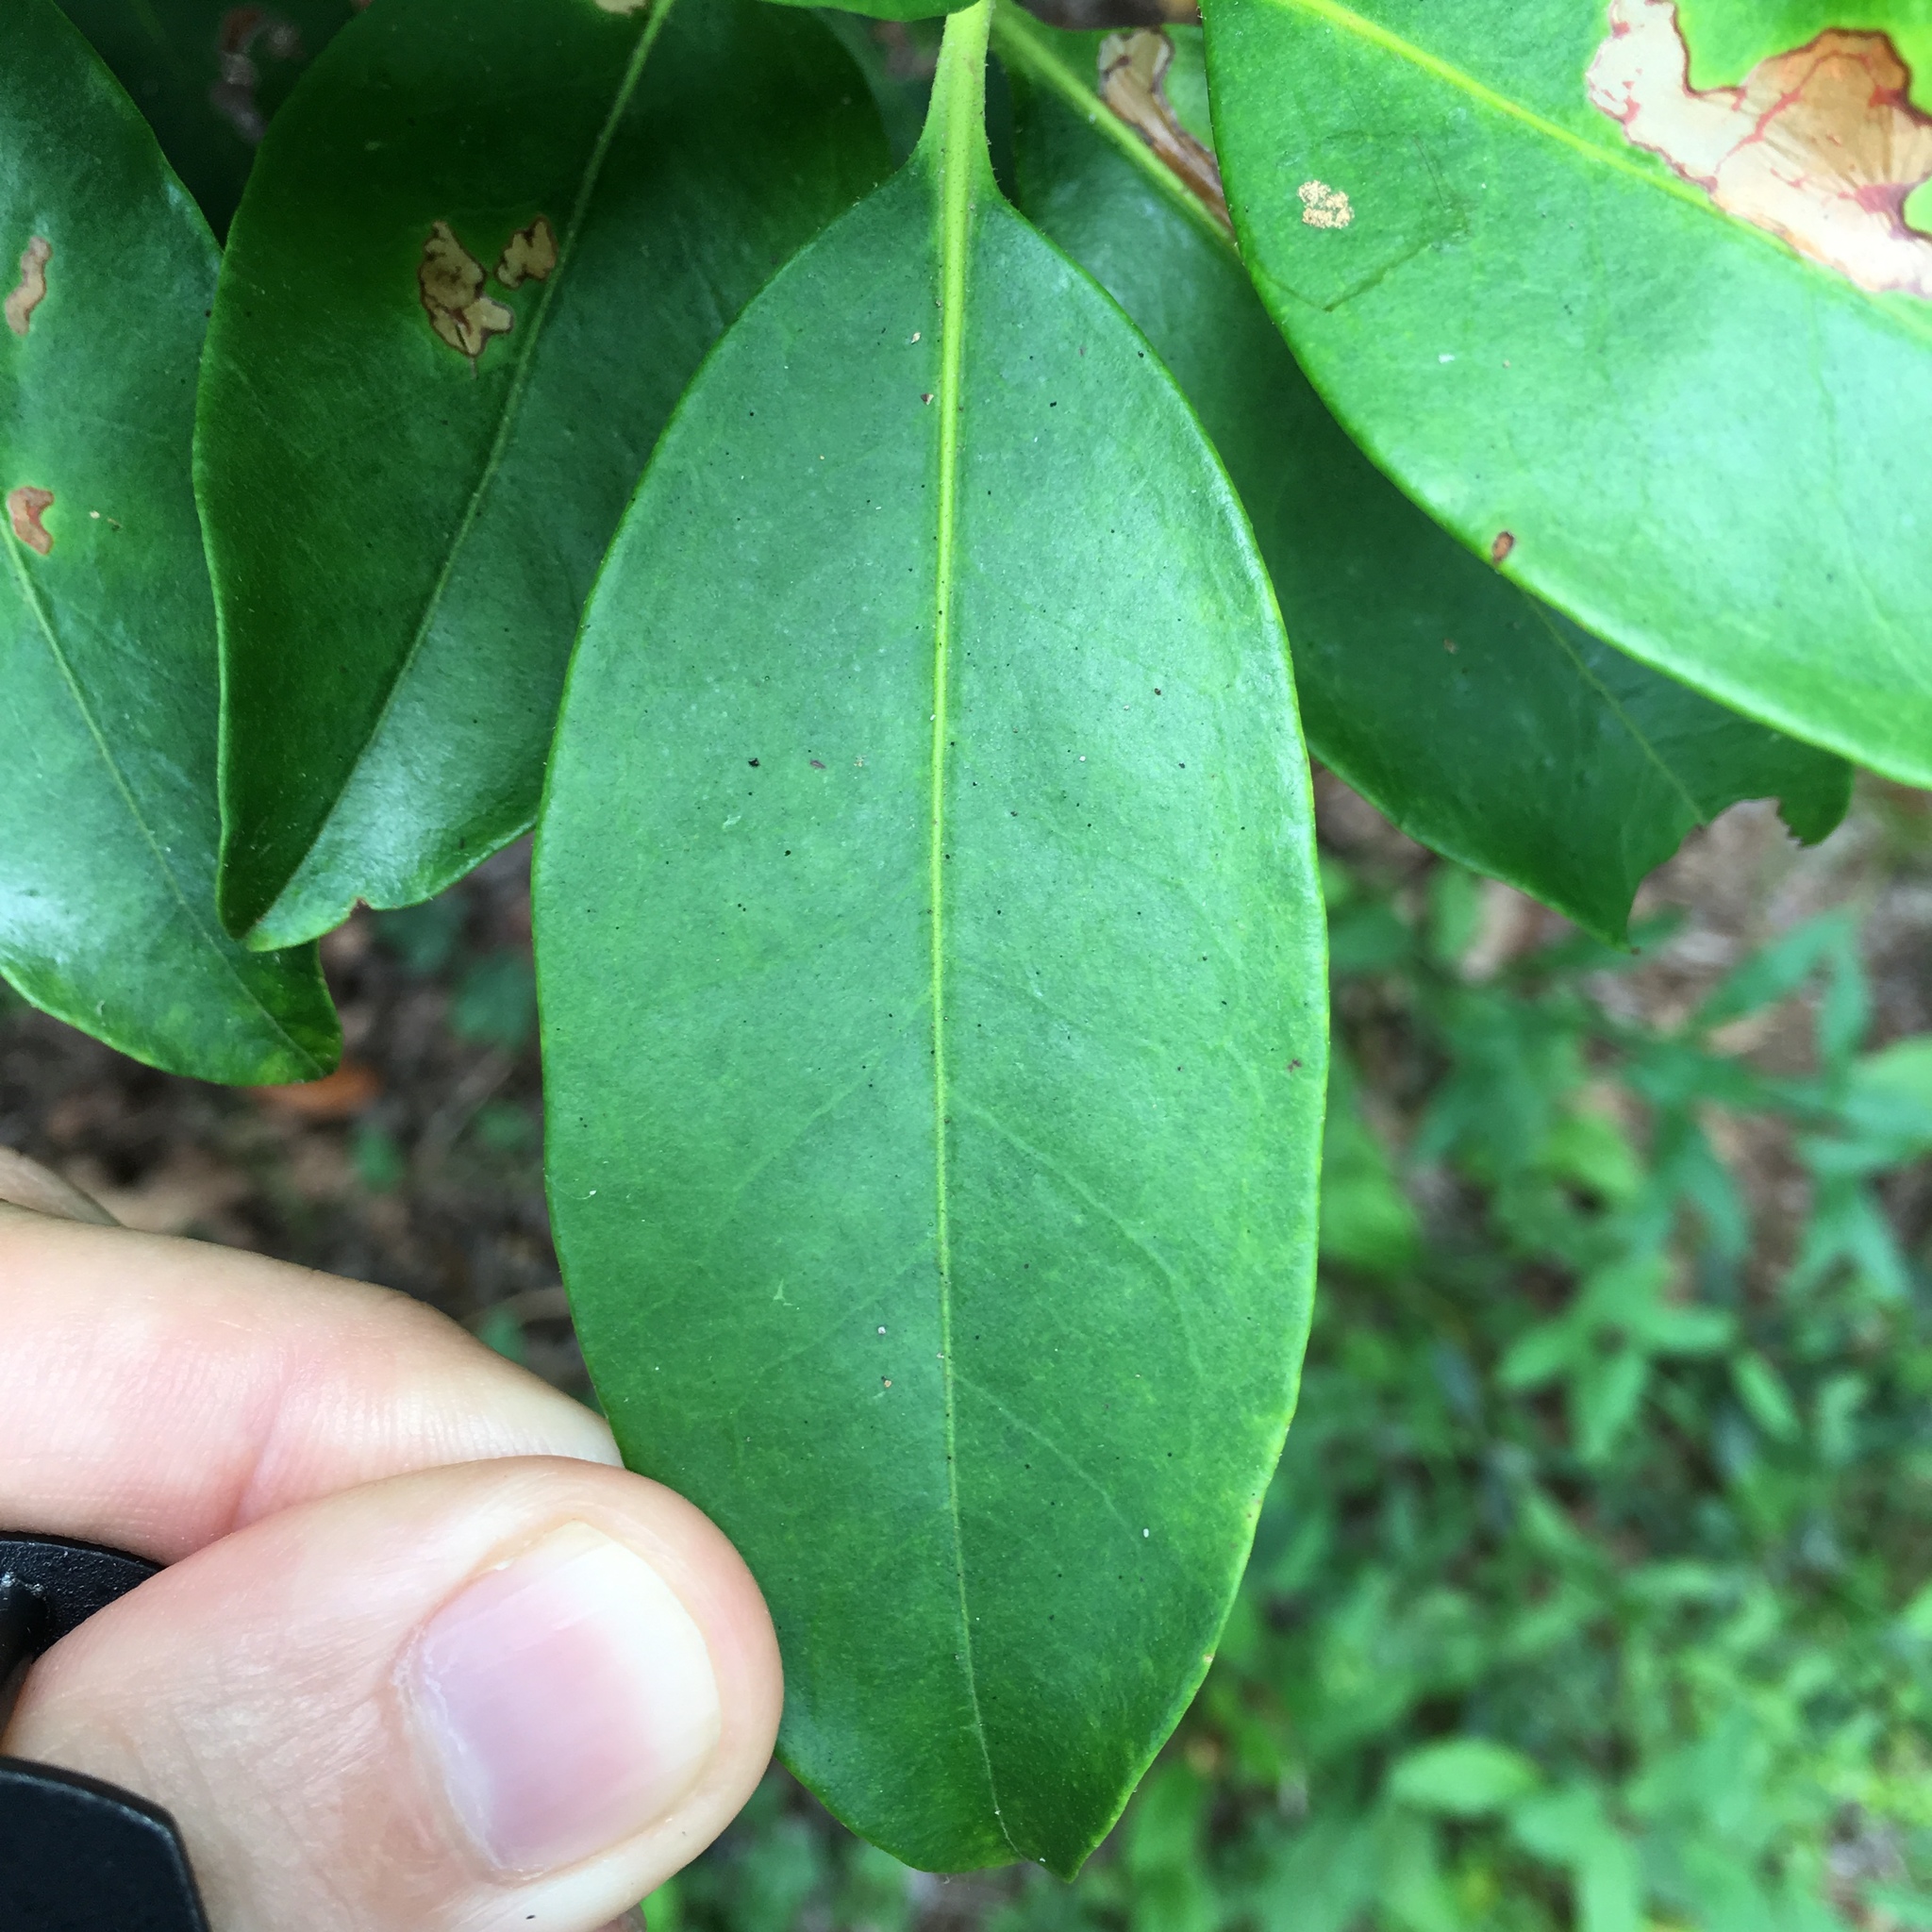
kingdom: Plantae
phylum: Tracheophyta
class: Magnoliopsida
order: Ericales
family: Ericaceae
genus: Kalmia
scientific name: Kalmia latifolia
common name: Mountain-laurel
